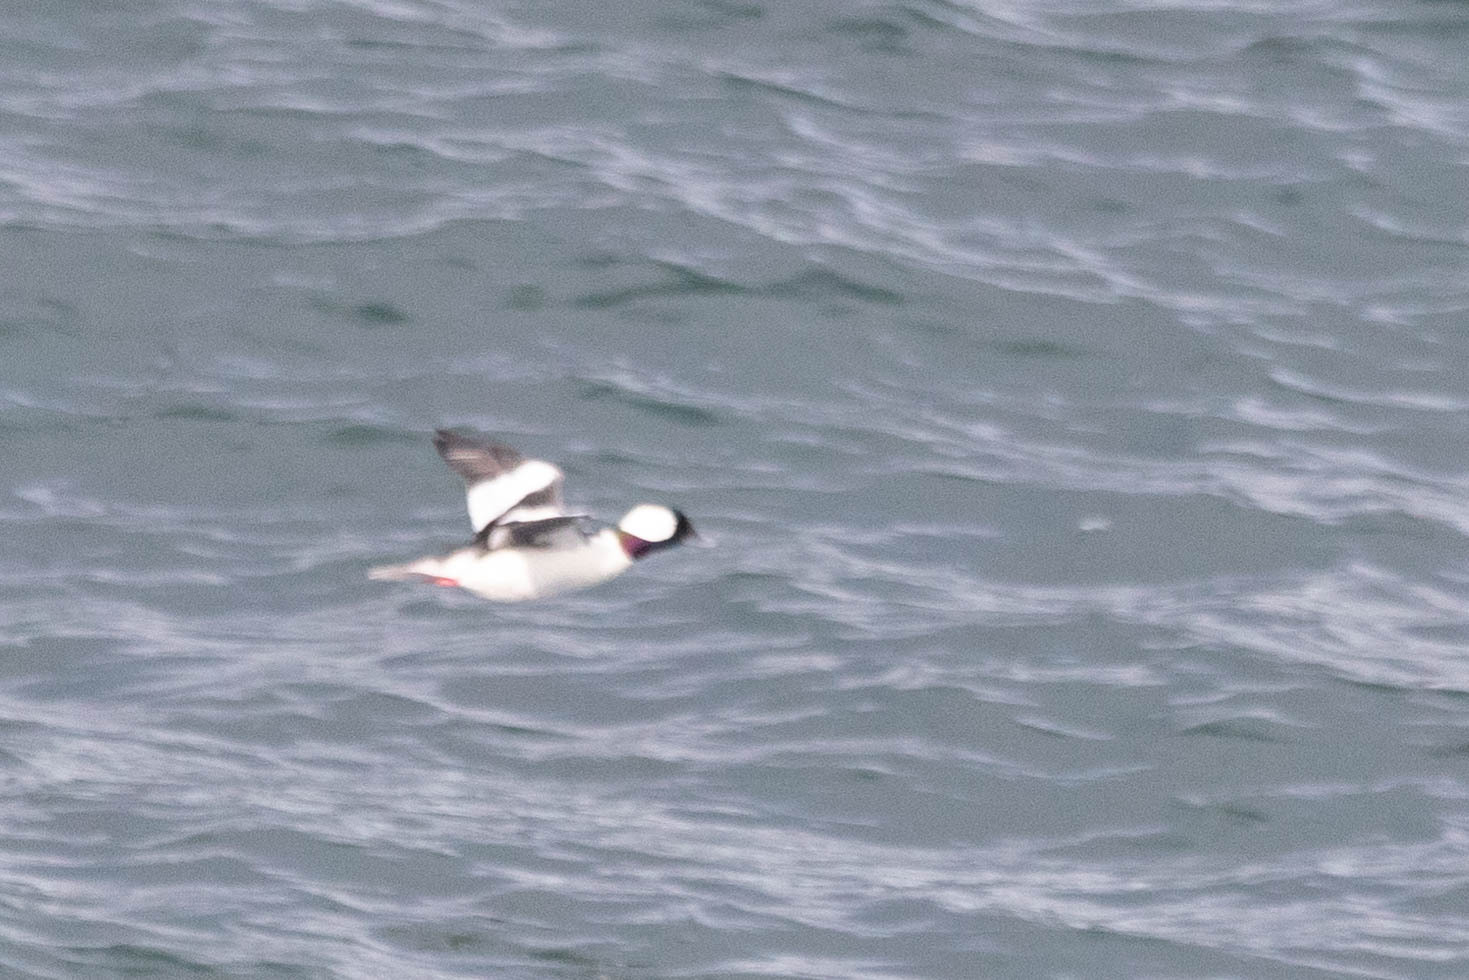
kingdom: Animalia
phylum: Chordata
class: Aves
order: Anseriformes
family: Anatidae
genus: Bucephala
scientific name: Bucephala albeola
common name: Bufflehead
